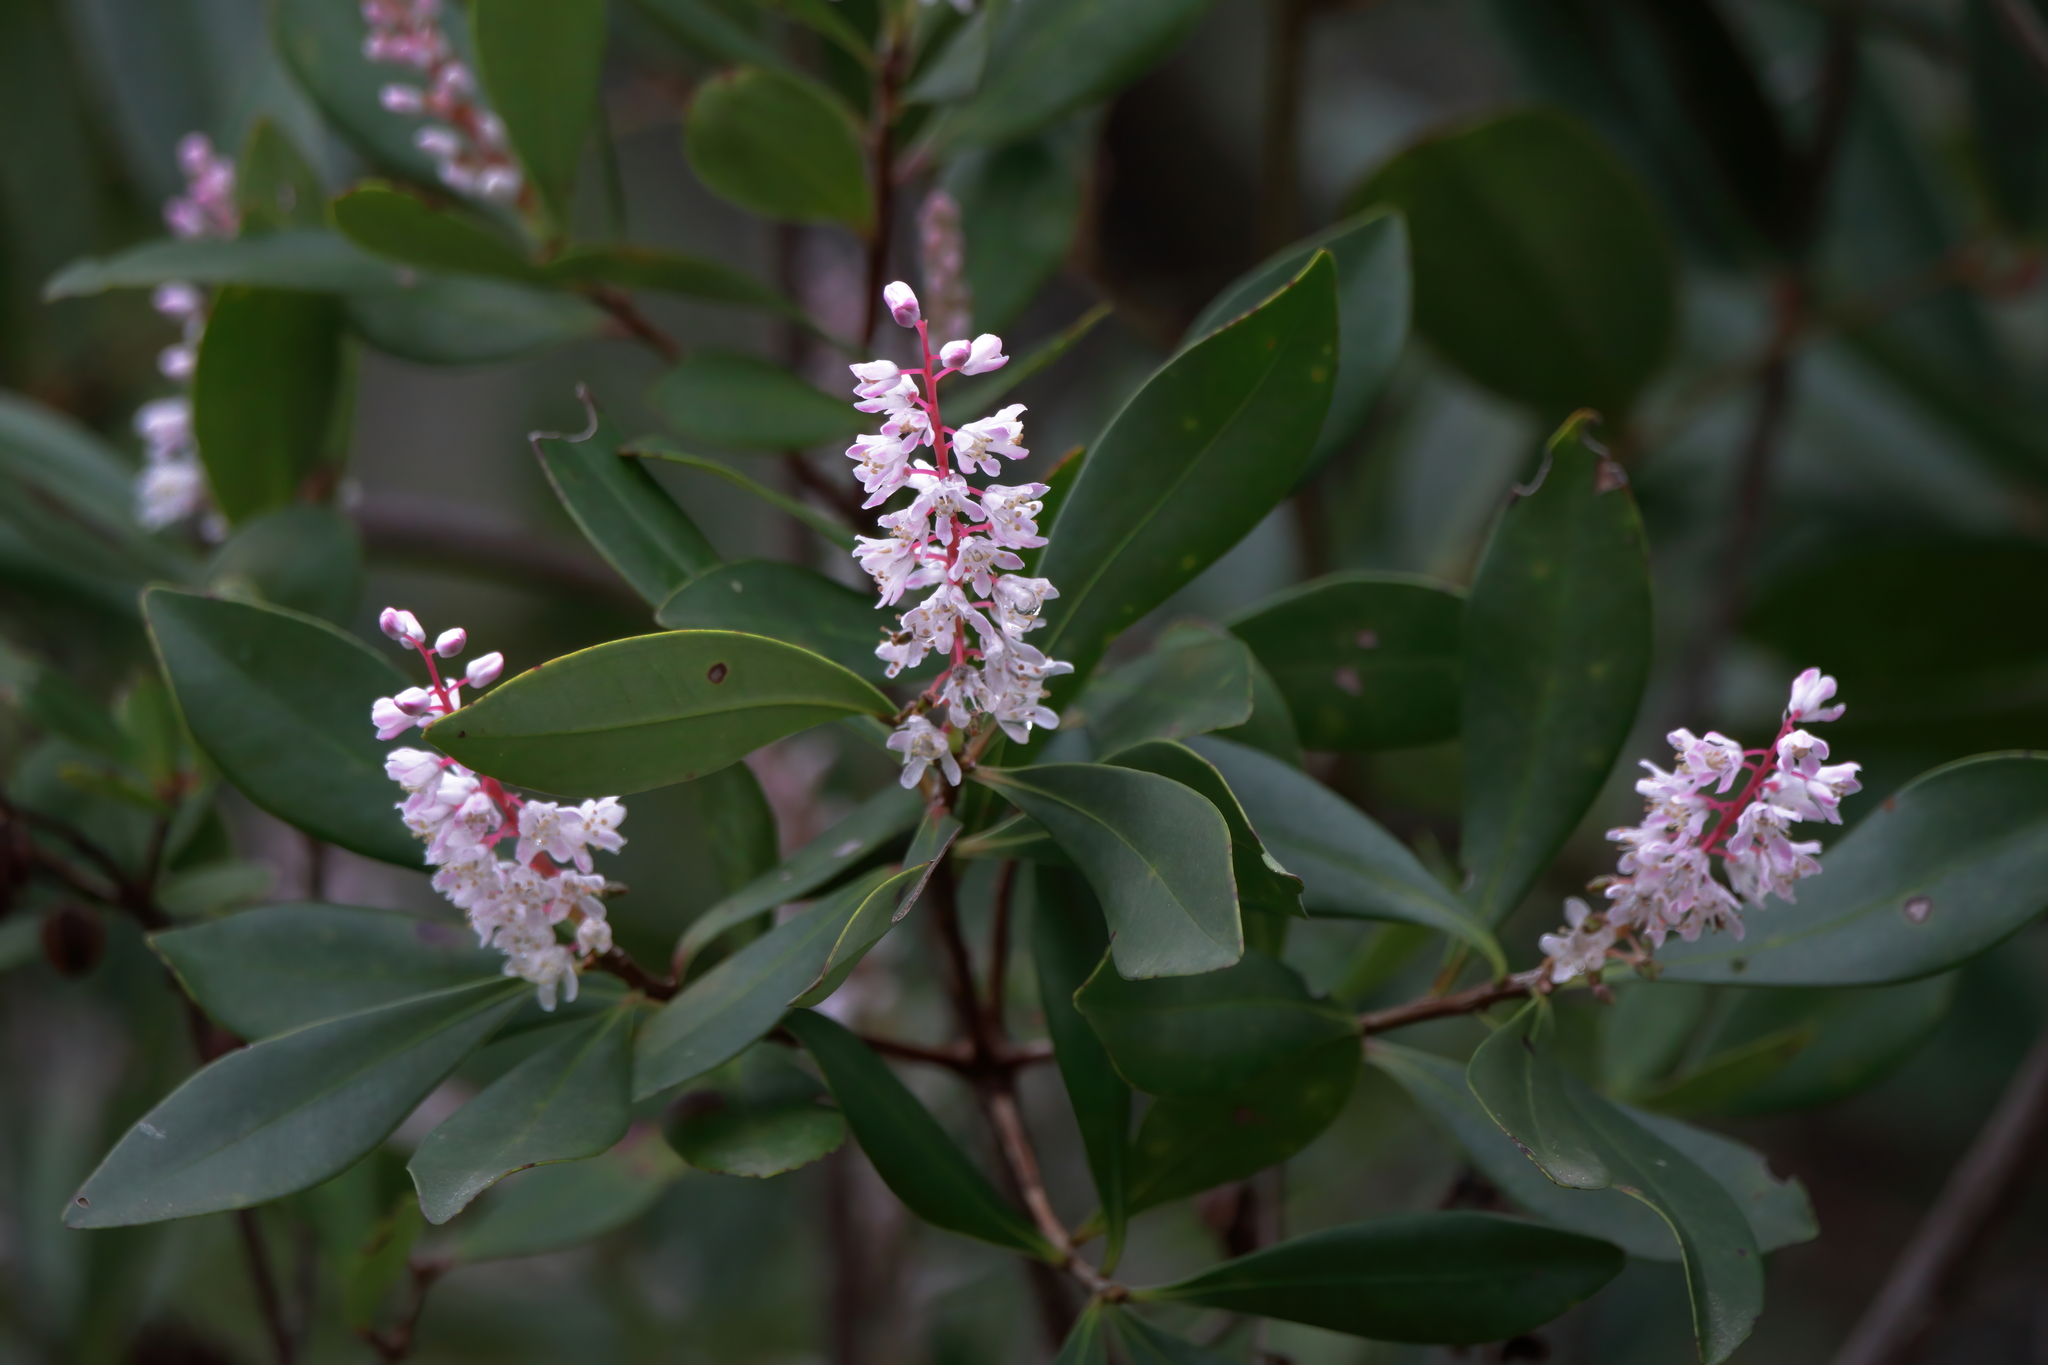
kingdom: Plantae
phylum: Tracheophyta
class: Magnoliopsida
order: Ericales
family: Cyrillaceae
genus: Cliftonia
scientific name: Cliftonia monophylla
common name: Titi
